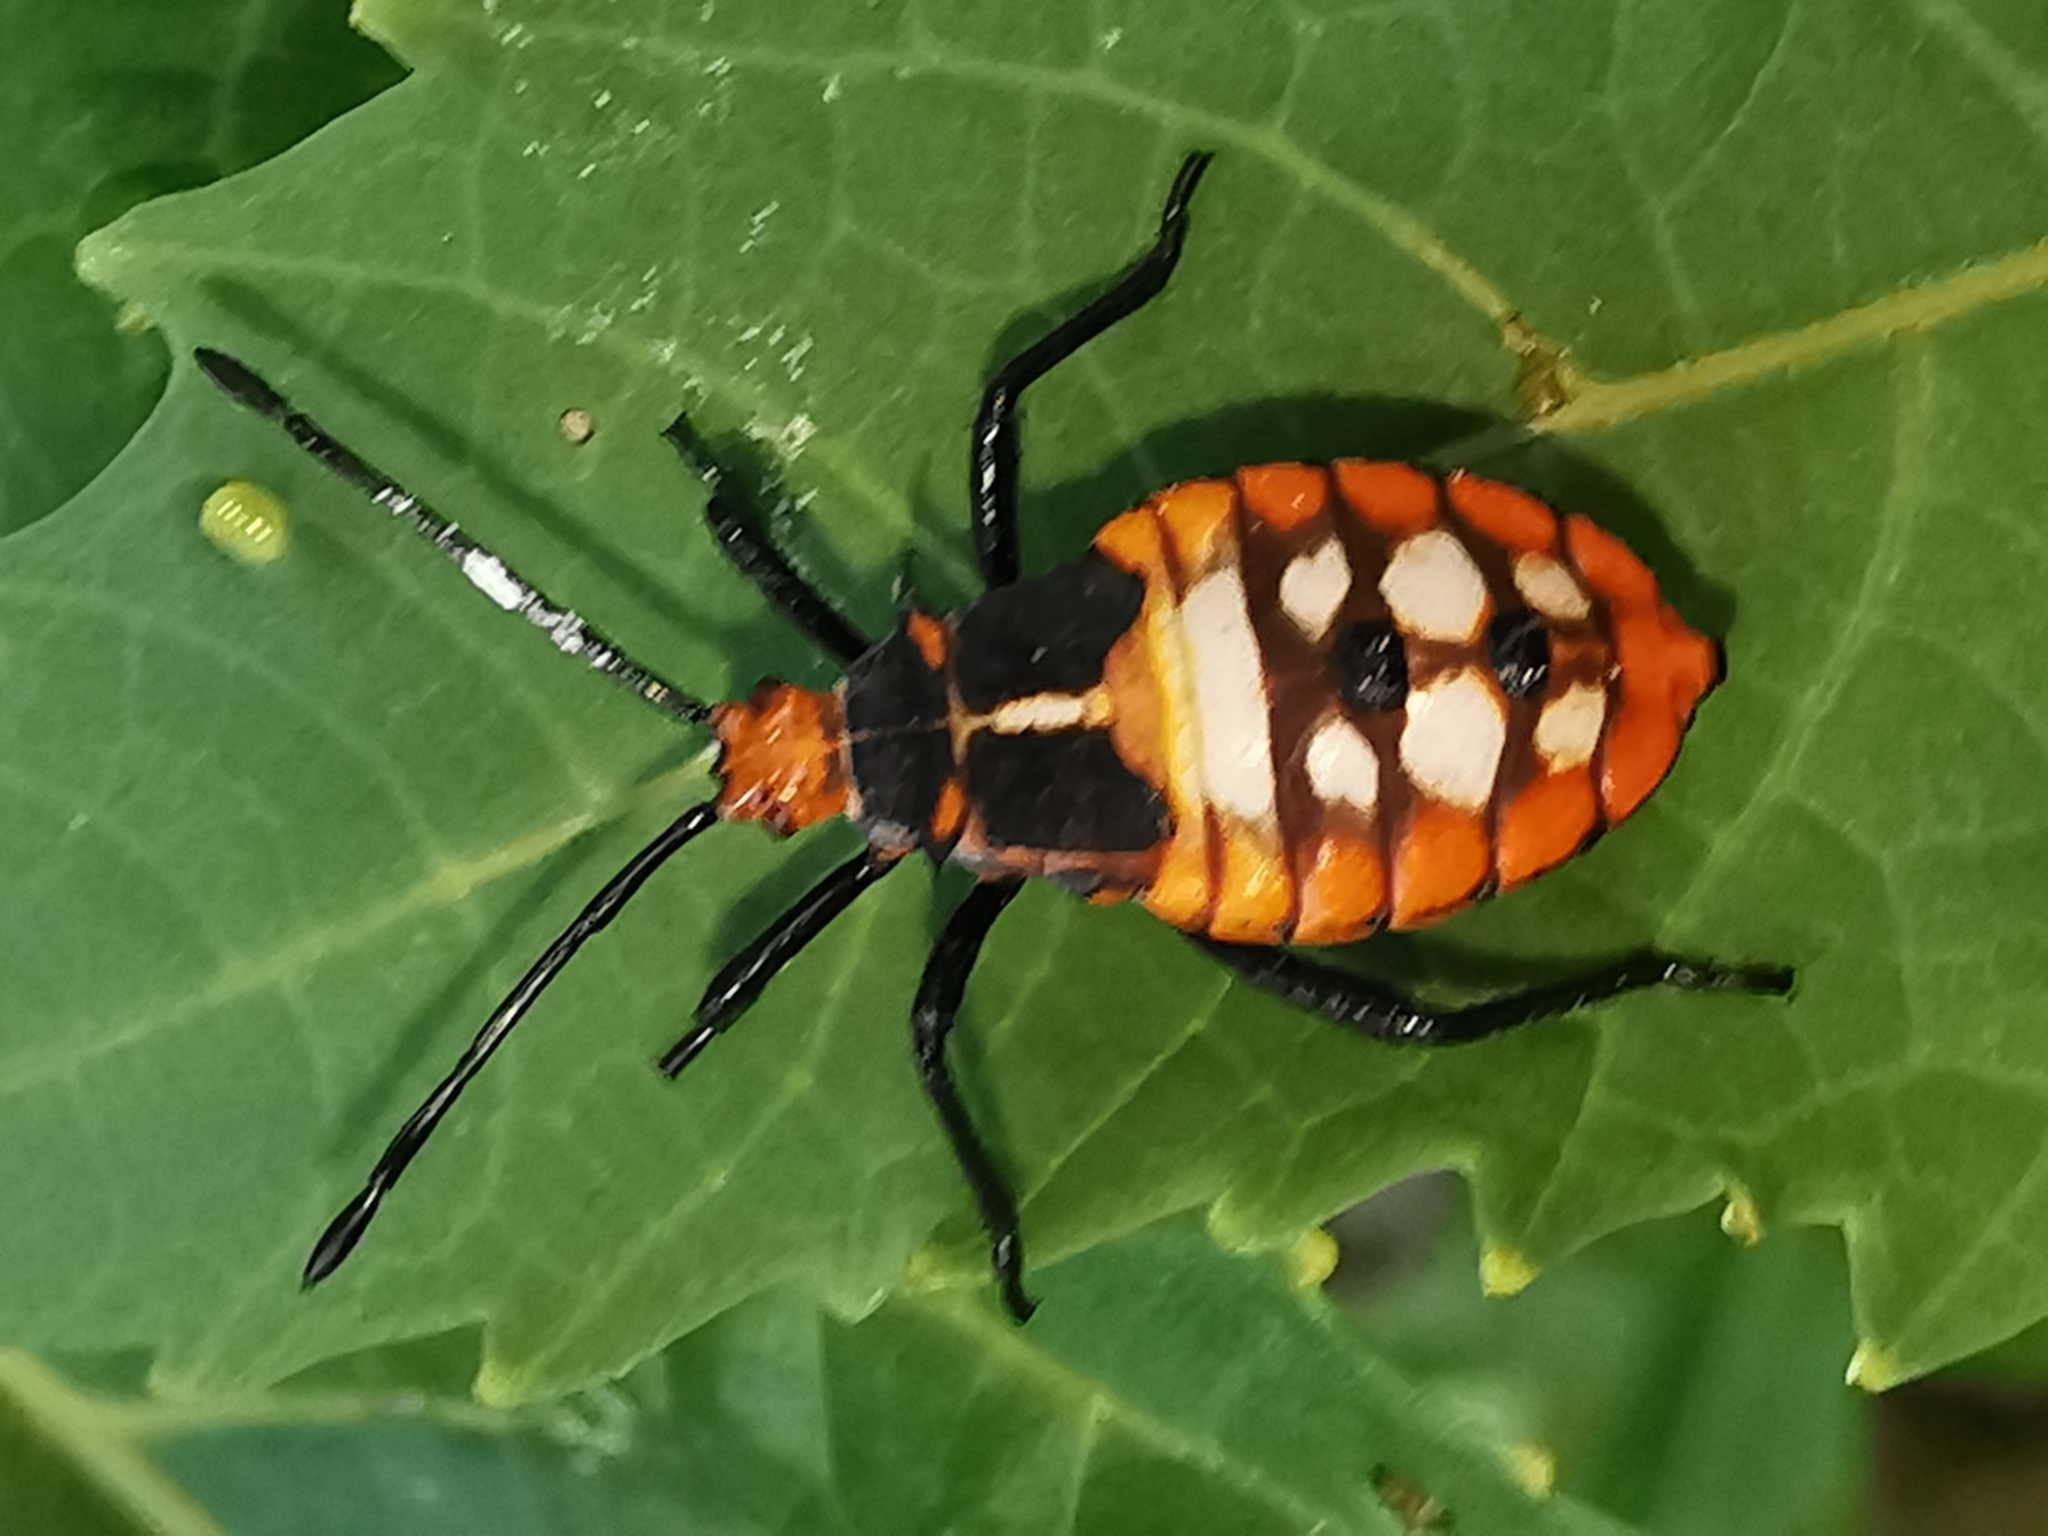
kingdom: Animalia
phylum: Arthropoda
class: Insecta
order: Hemiptera
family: Coreidae
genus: Sagotylus
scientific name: Sagotylus confluens
